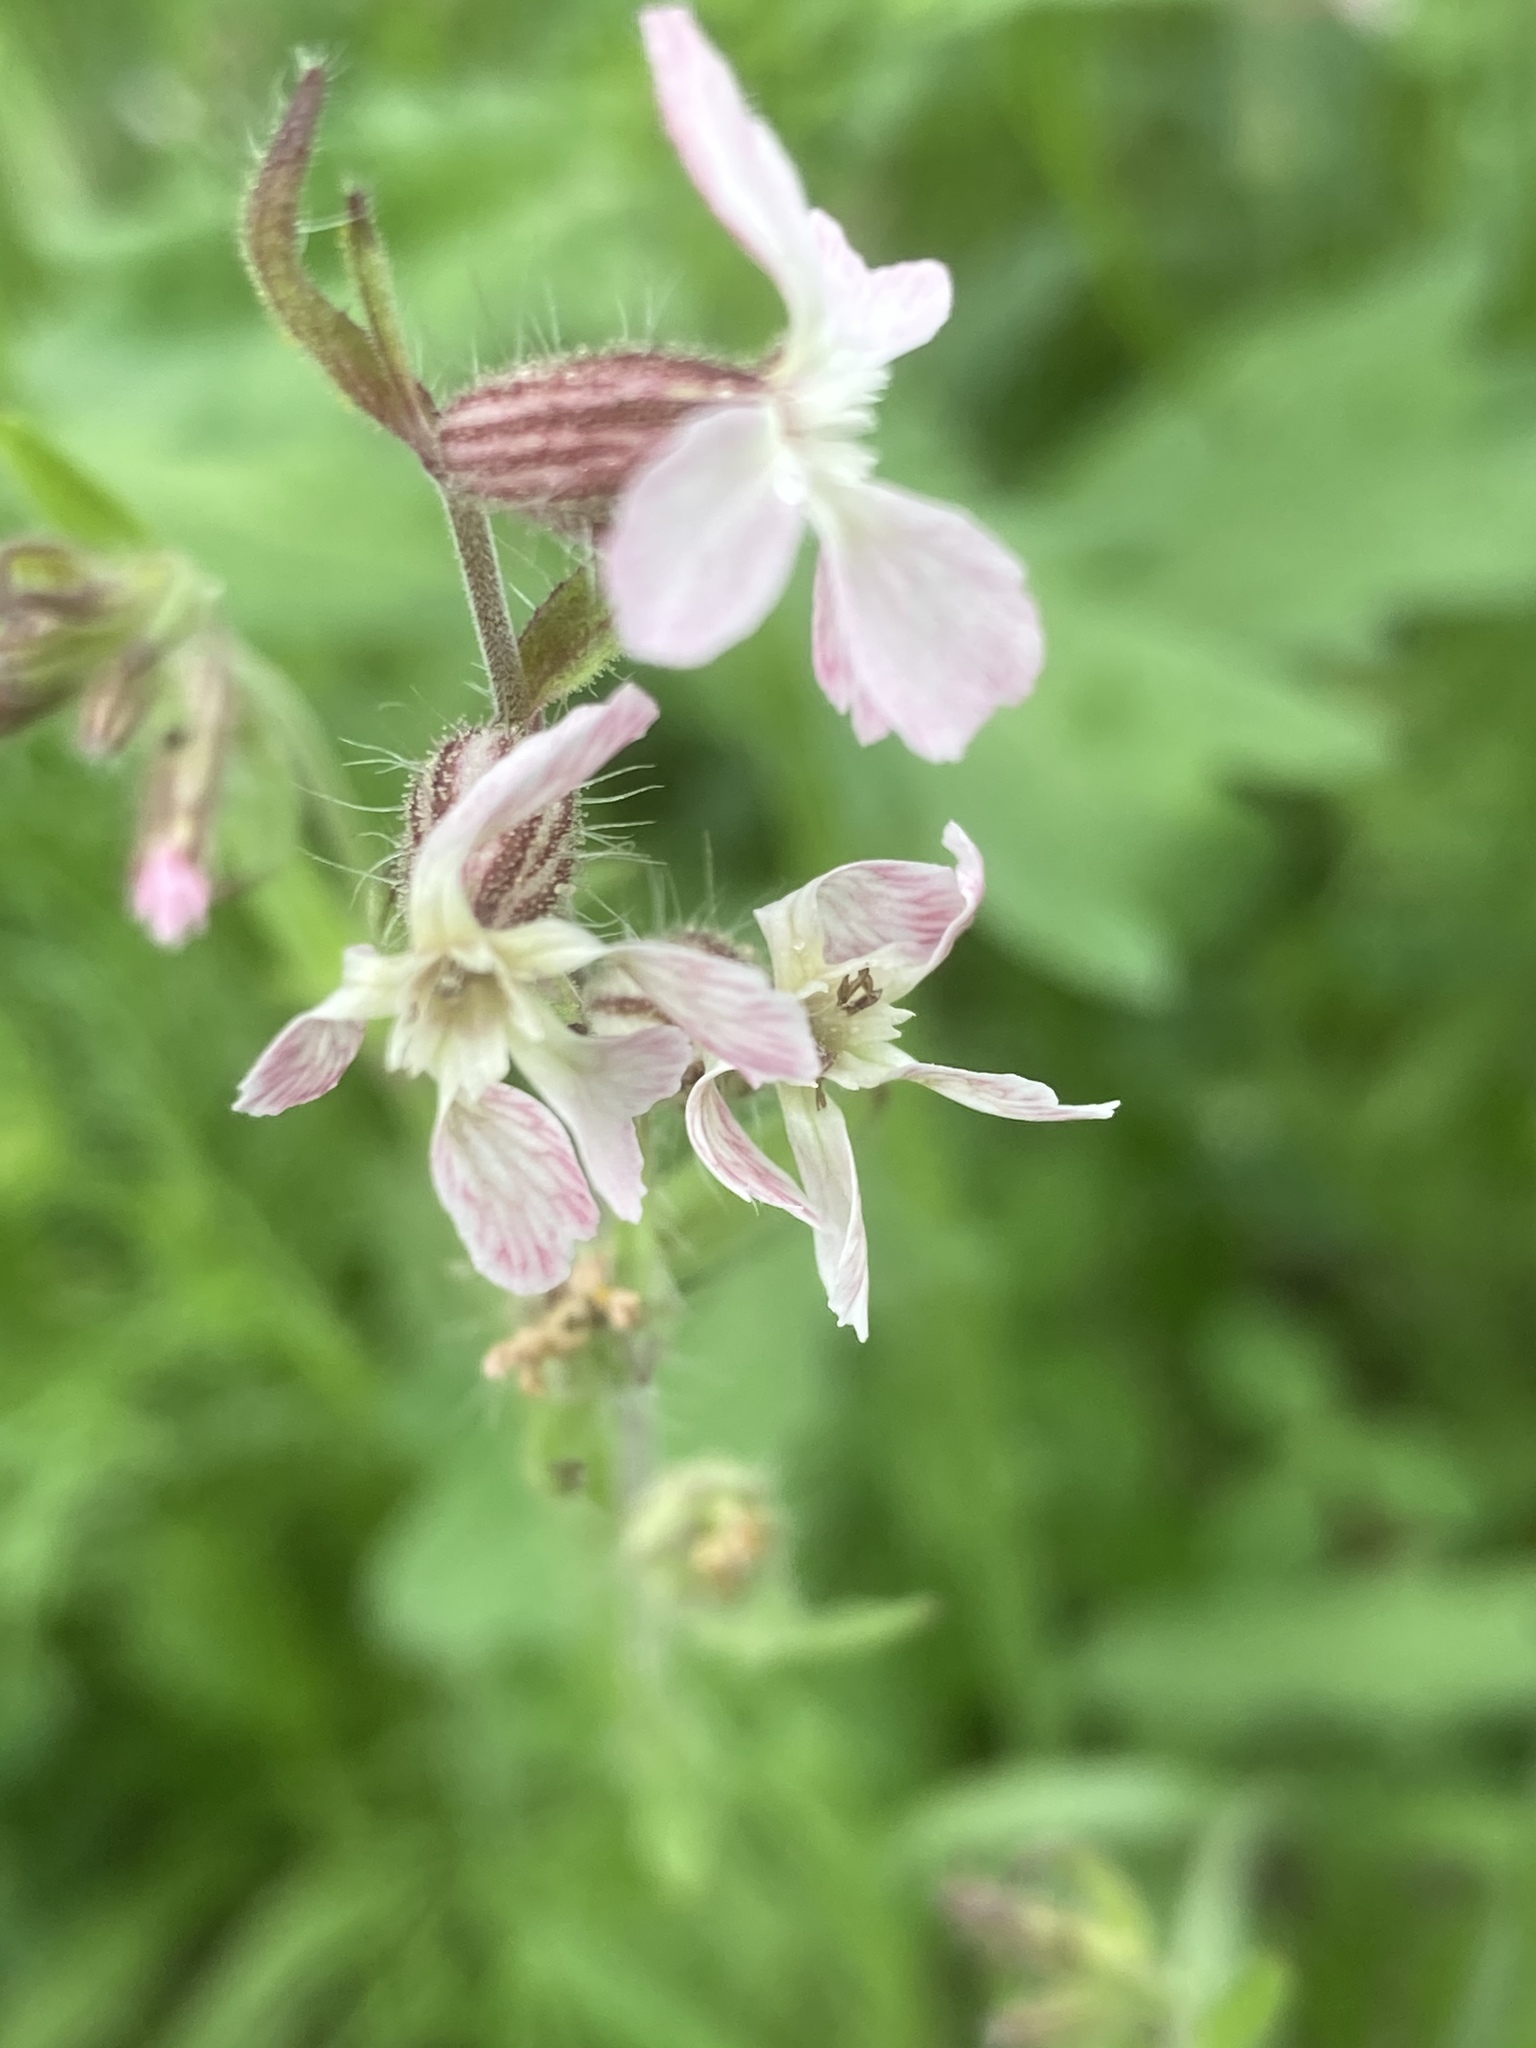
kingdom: Plantae
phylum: Tracheophyta
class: Magnoliopsida
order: Caryophyllales
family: Caryophyllaceae
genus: Silene
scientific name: Silene gallica
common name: Small-flowered catchfly
